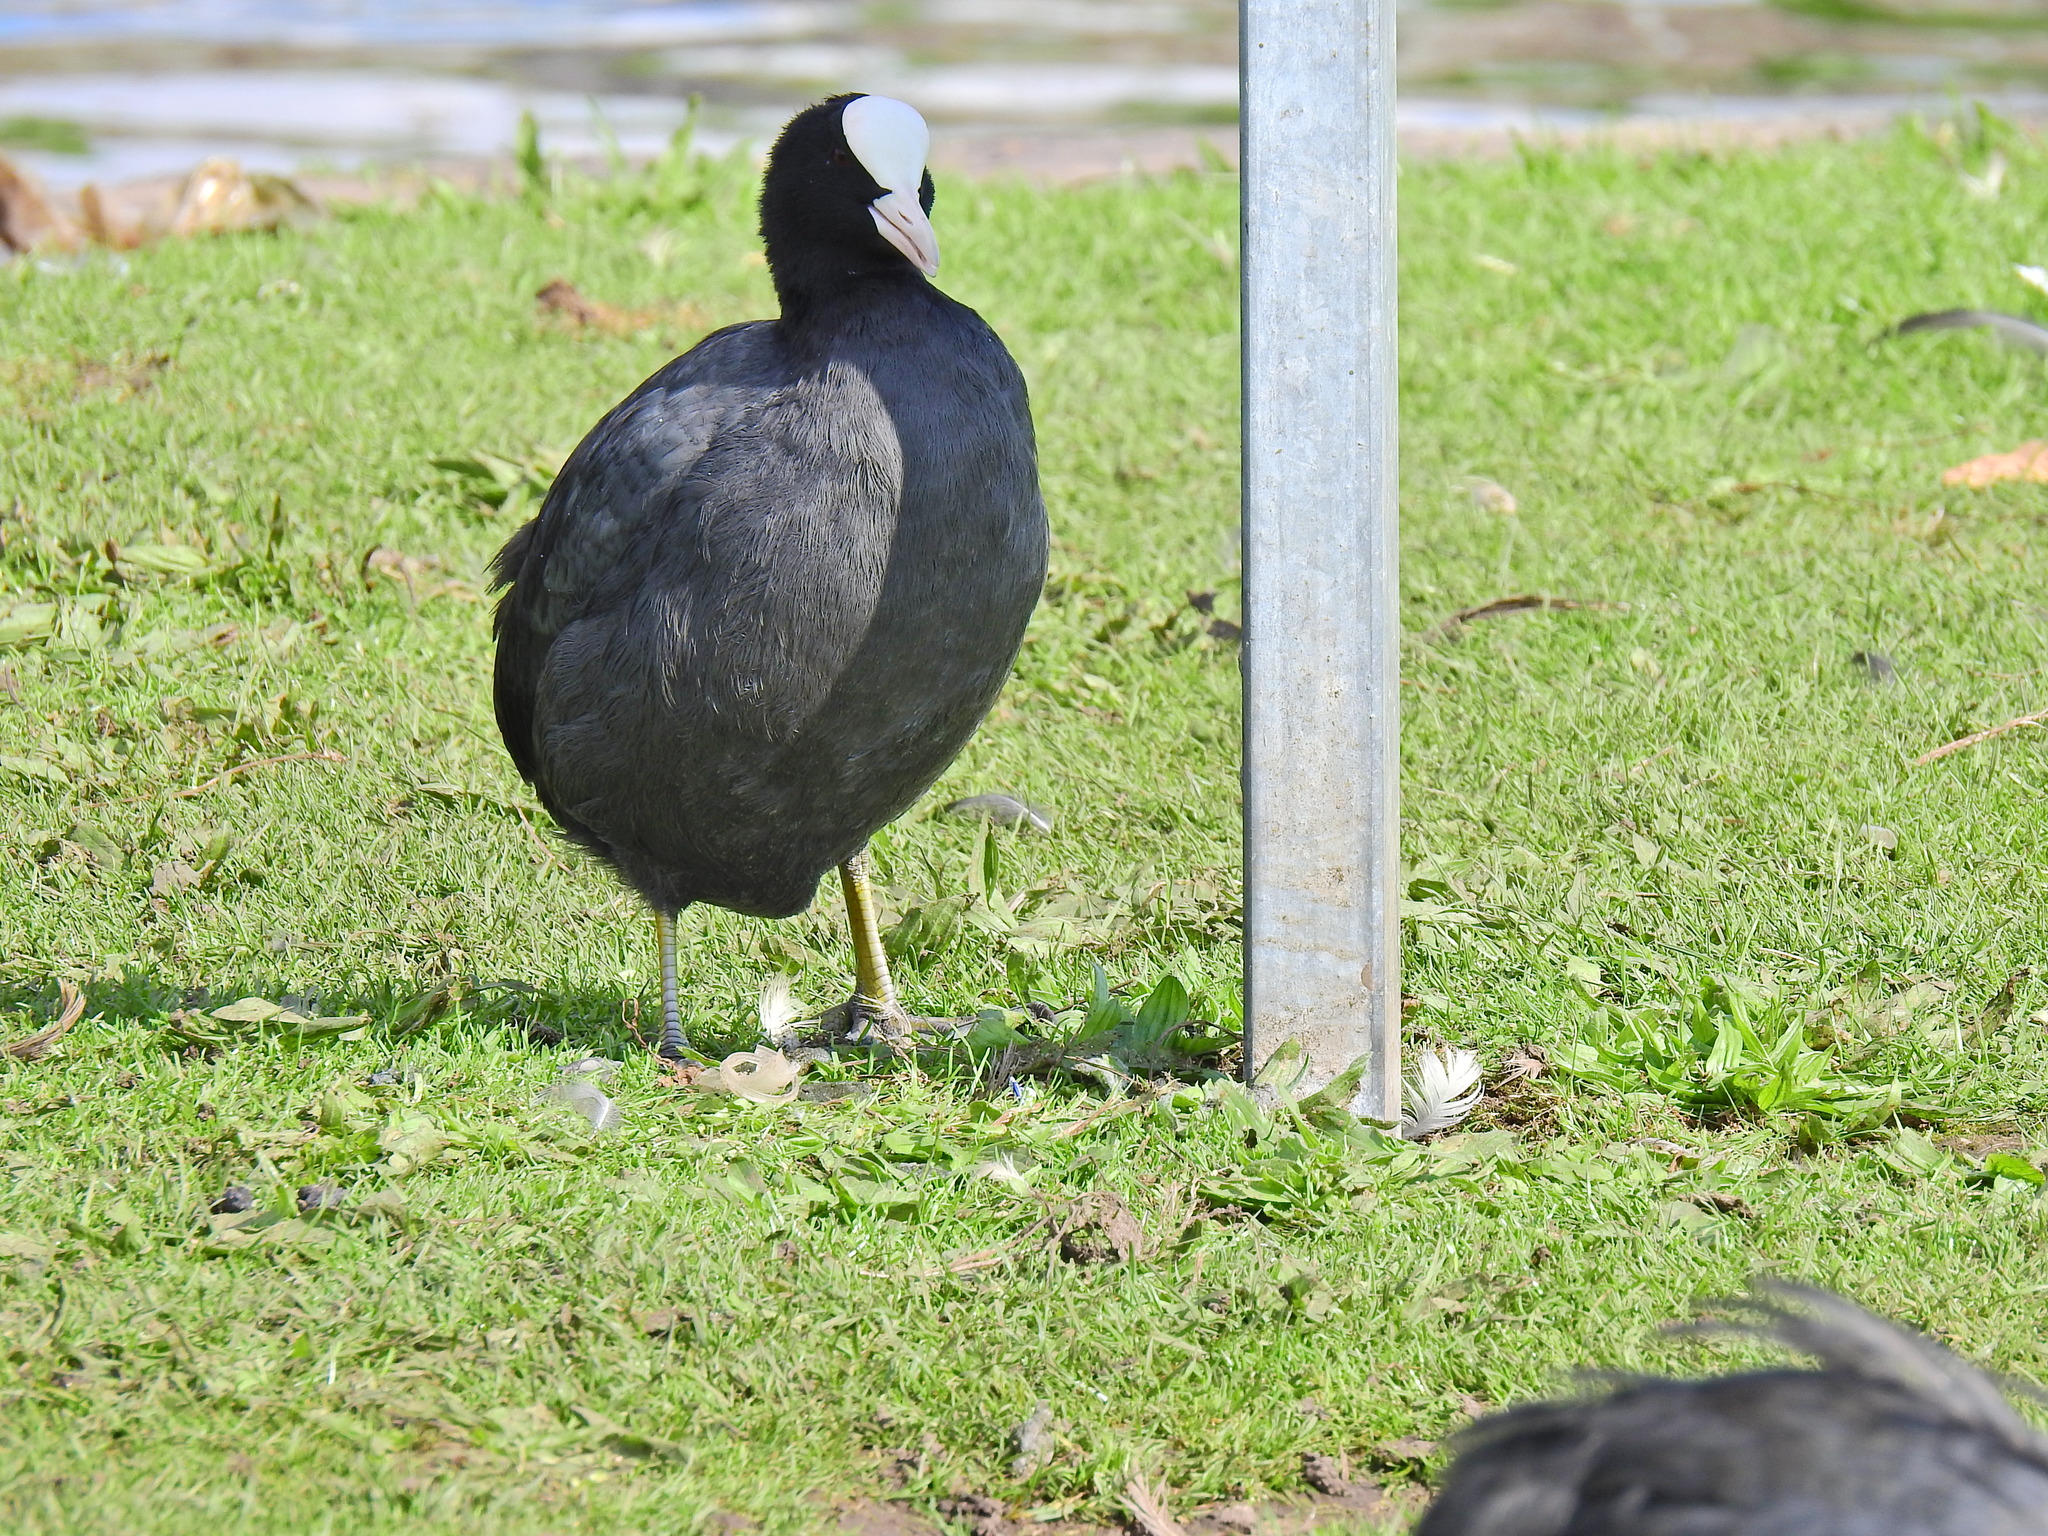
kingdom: Animalia
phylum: Chordata
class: Aves
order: Gruiformes
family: Rallidae
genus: Fulica
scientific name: Fulica atra
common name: Eurasian coot
